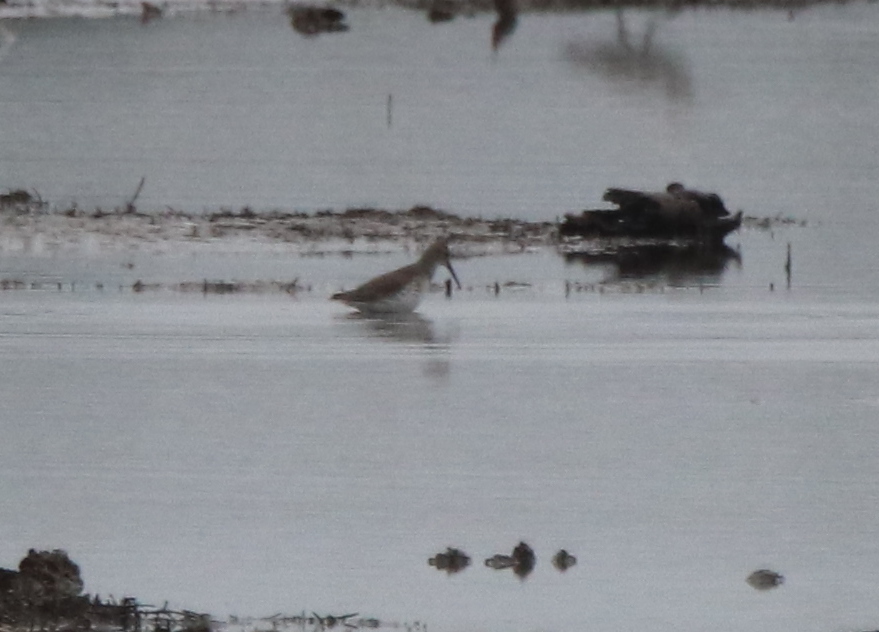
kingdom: Animalia
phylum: Chordata
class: Aves
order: Charadriiformes
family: Scolopacidae
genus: Calidris
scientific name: Calidris alpina
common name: Dunlin
